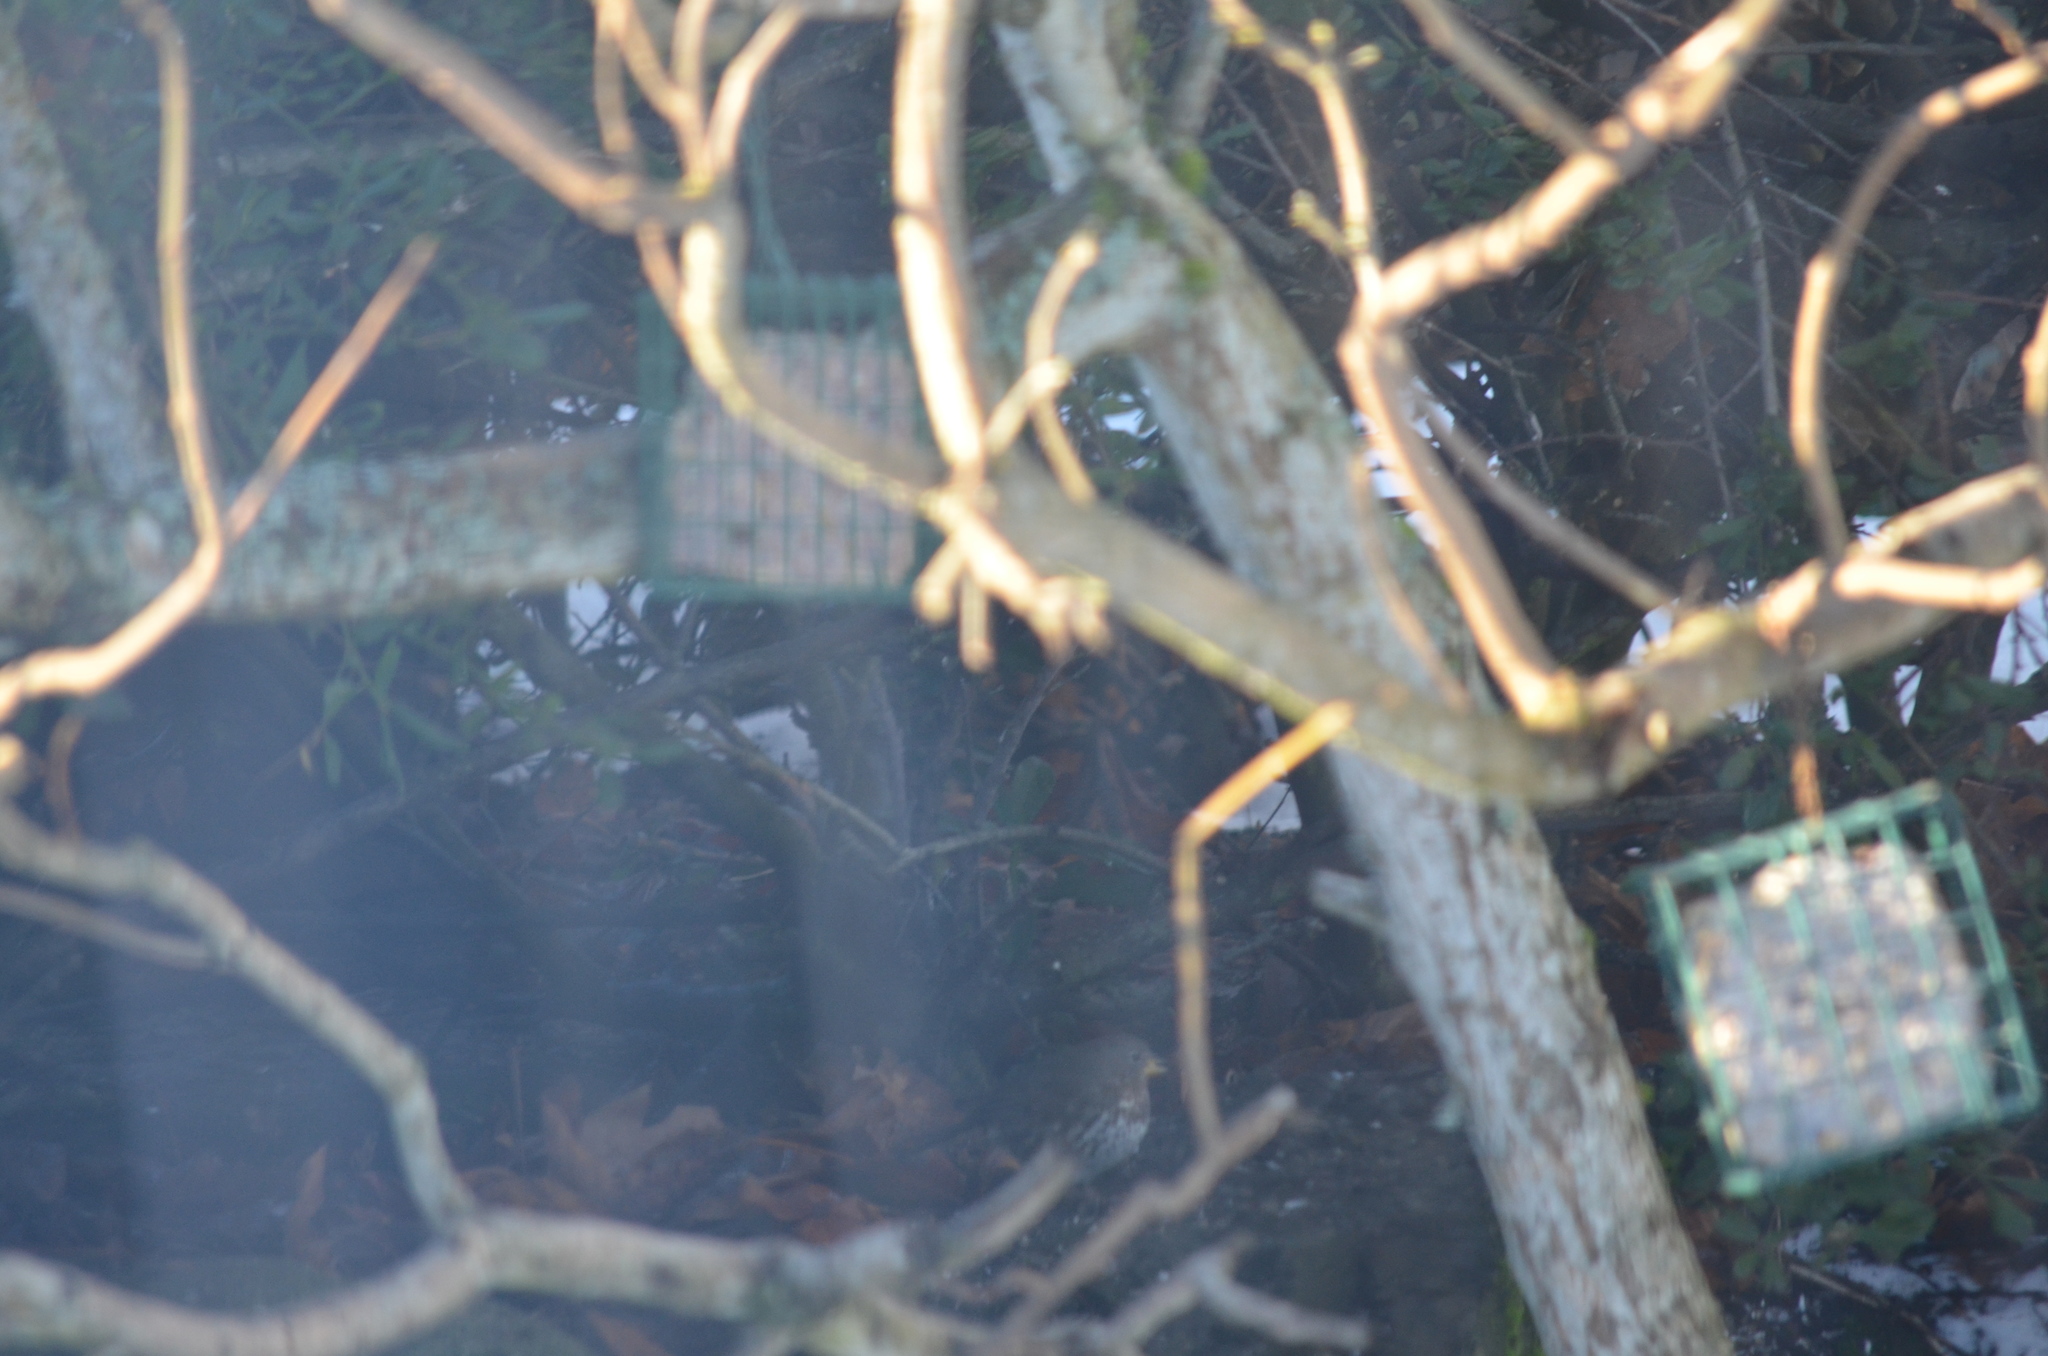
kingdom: Animalia
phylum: Chordata
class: Aves
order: Passeriformes
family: Passerellidae
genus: Passerella
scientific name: Passerella iliaca
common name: Fox sparrow
